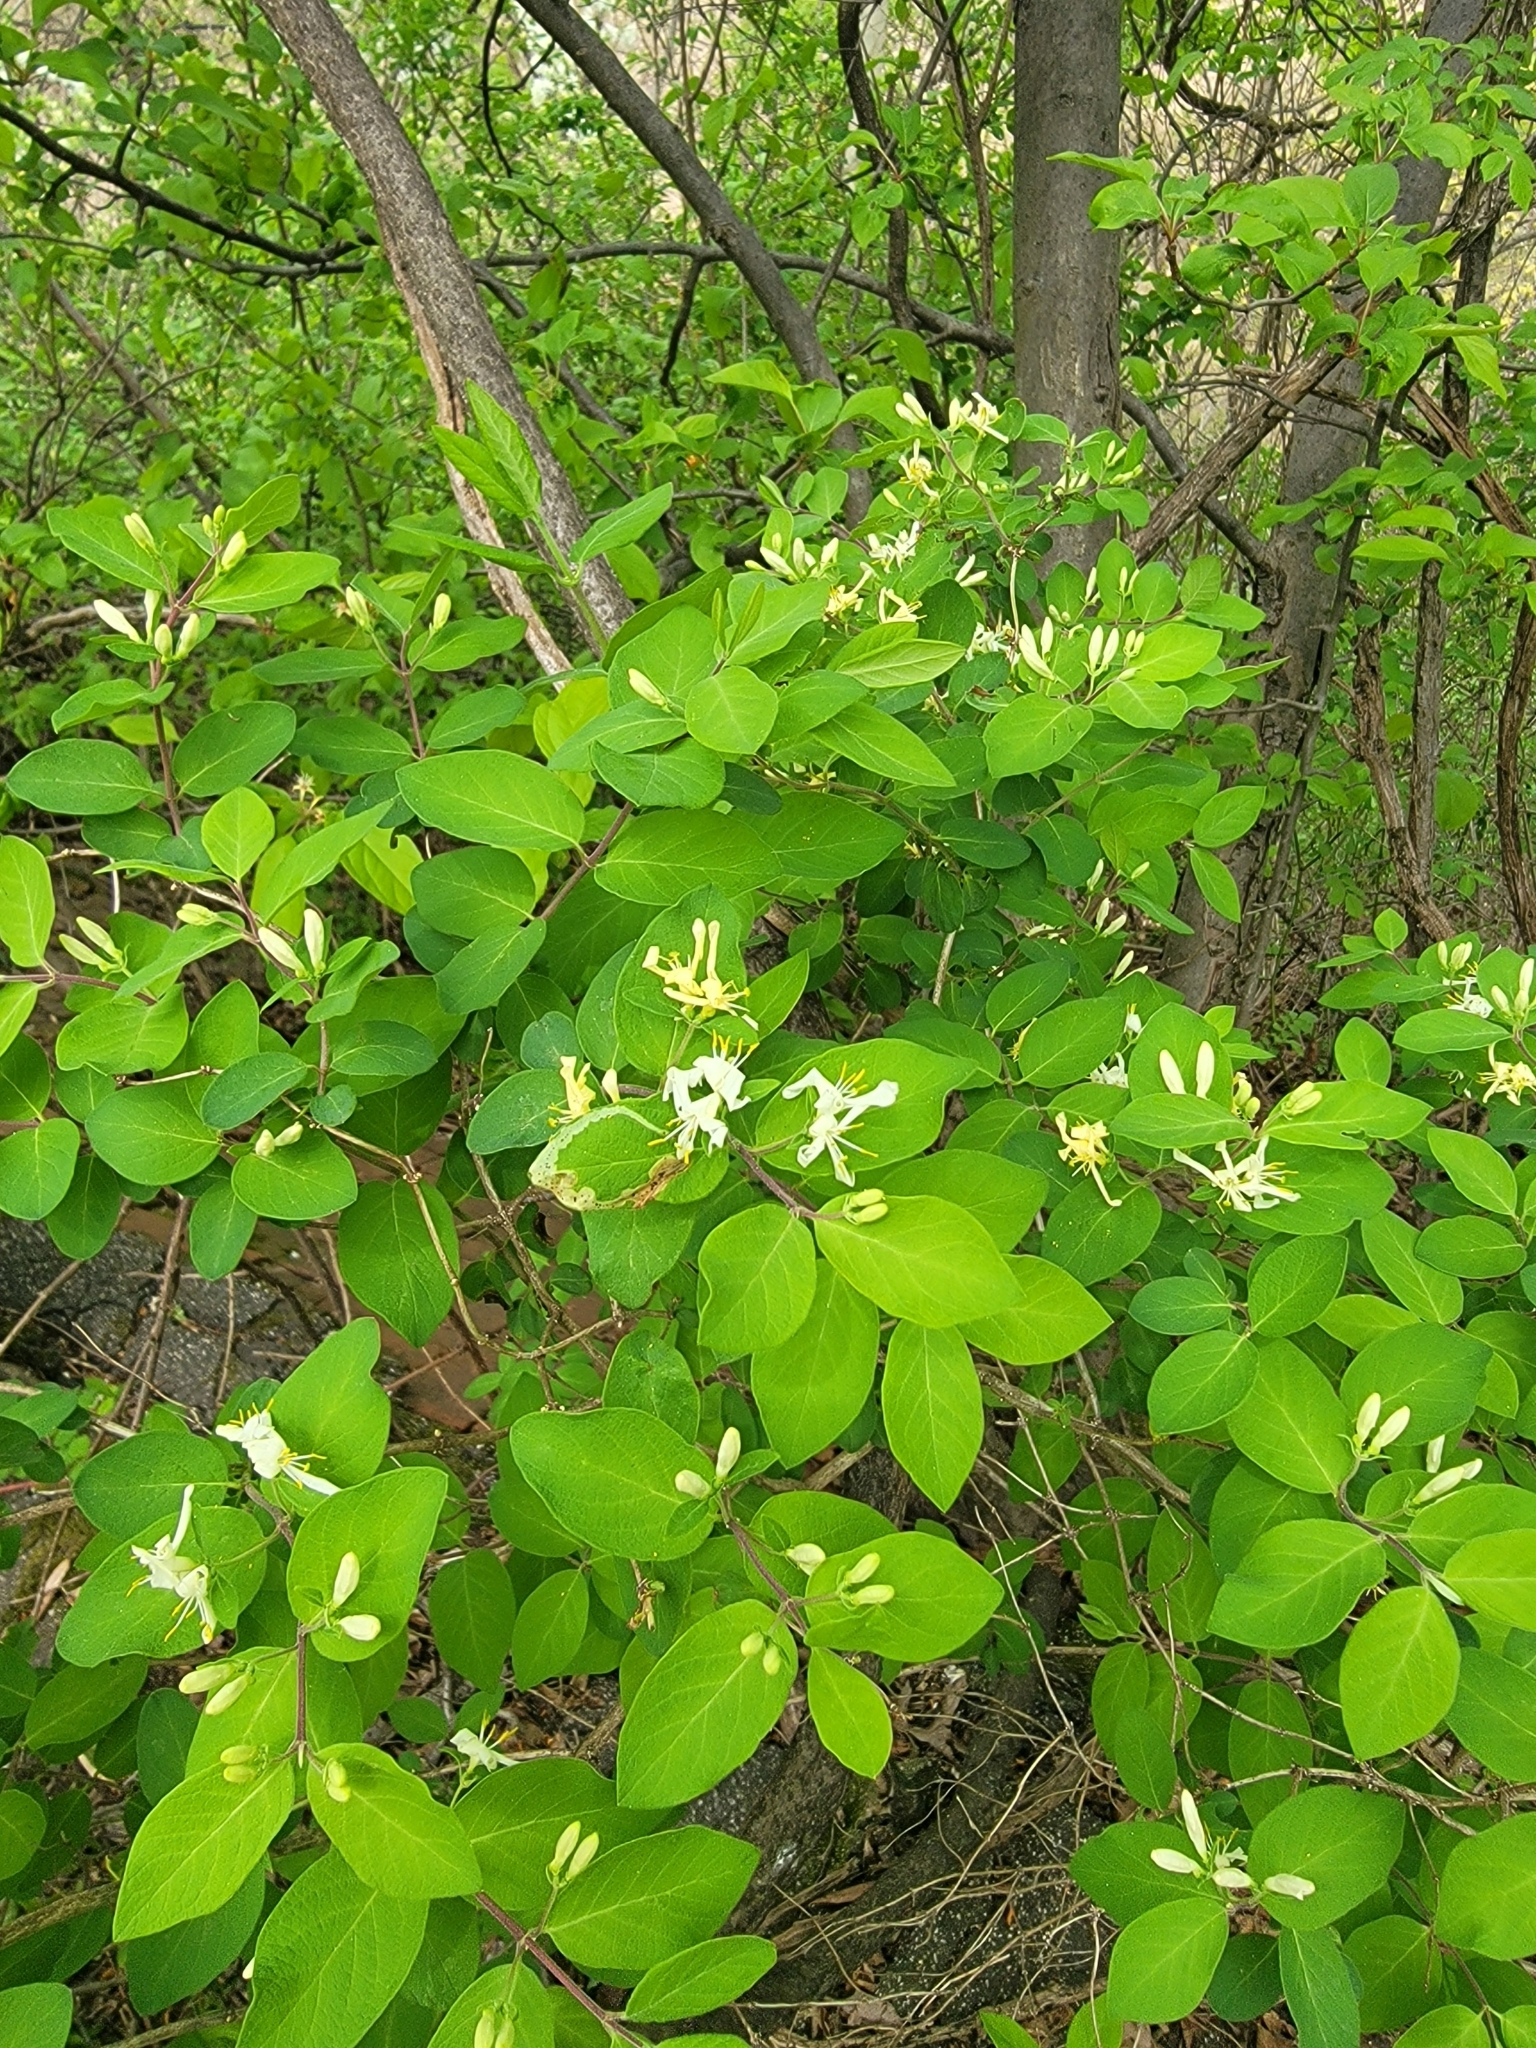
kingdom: Plantae
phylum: Tracheophyta
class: Magnoliopsida
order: Dipsacales
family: Caprifoliaceae
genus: Lonicera
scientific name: Lonicera morrowii
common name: Morrow's honeysuckle
